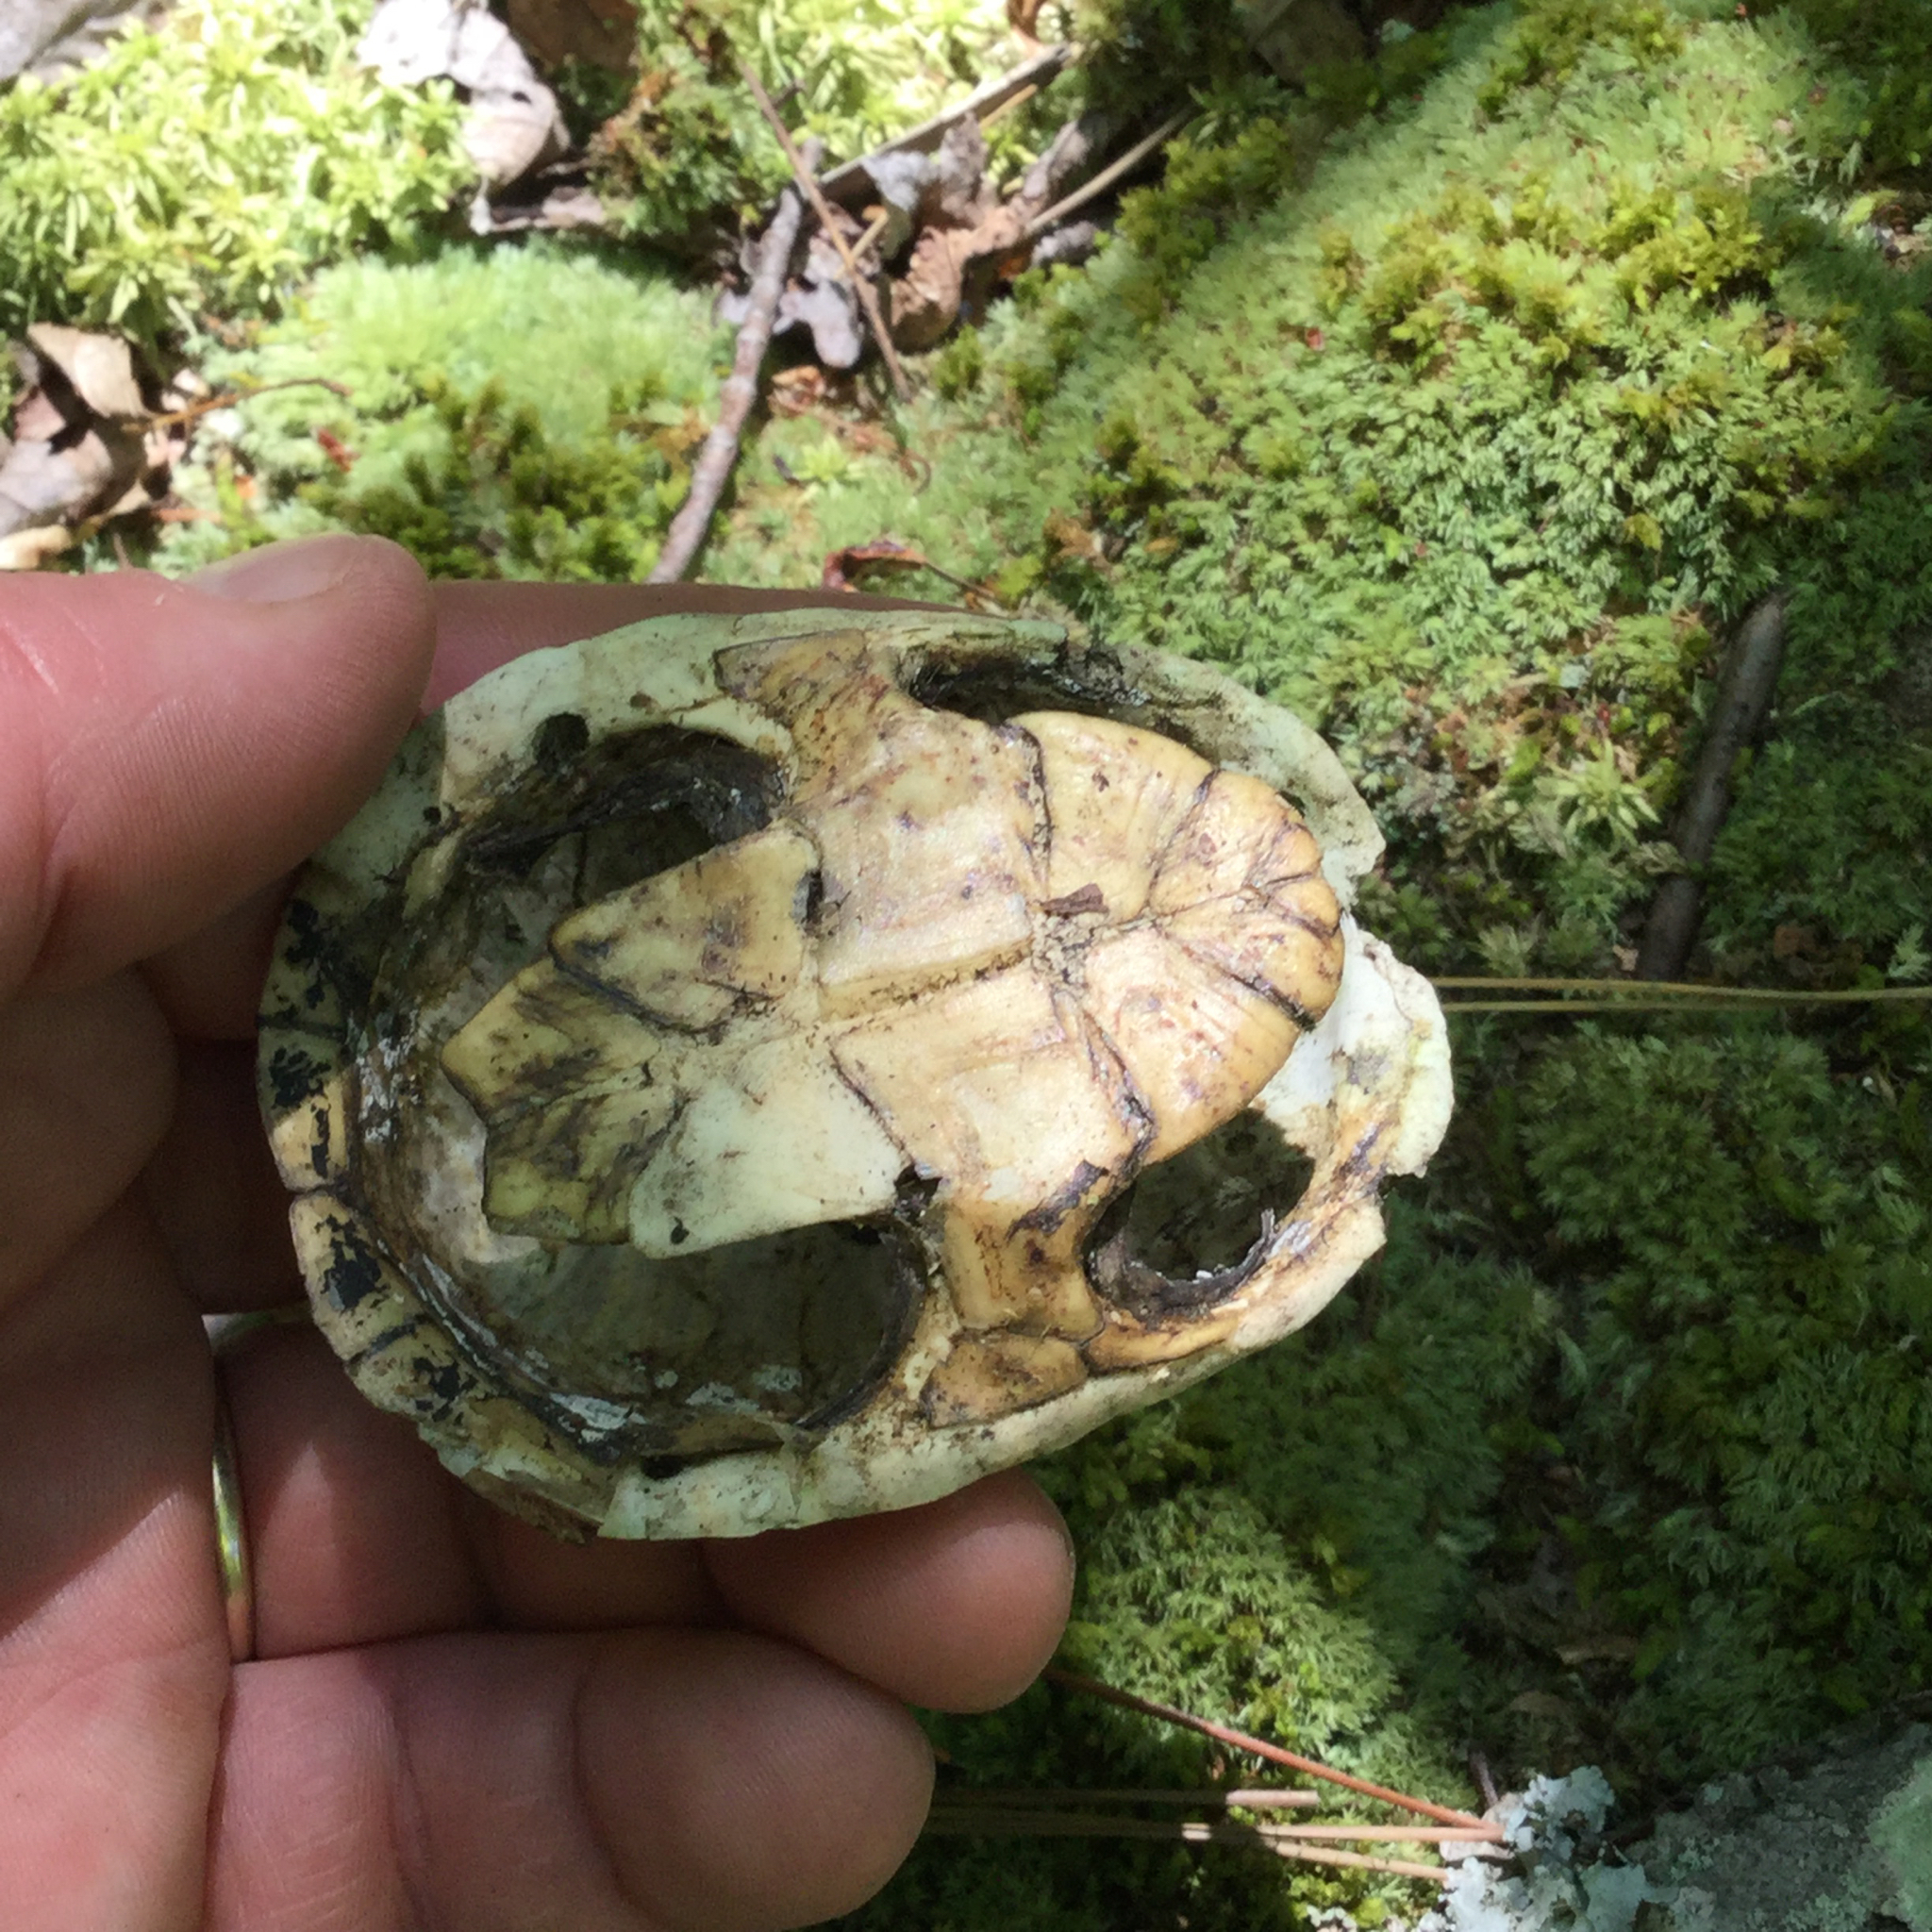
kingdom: Animalia
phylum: Chordata
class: Testudines
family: Kinosternidae
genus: Sternotherus
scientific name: Sternotherus odoratus
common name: Common musk turtle
